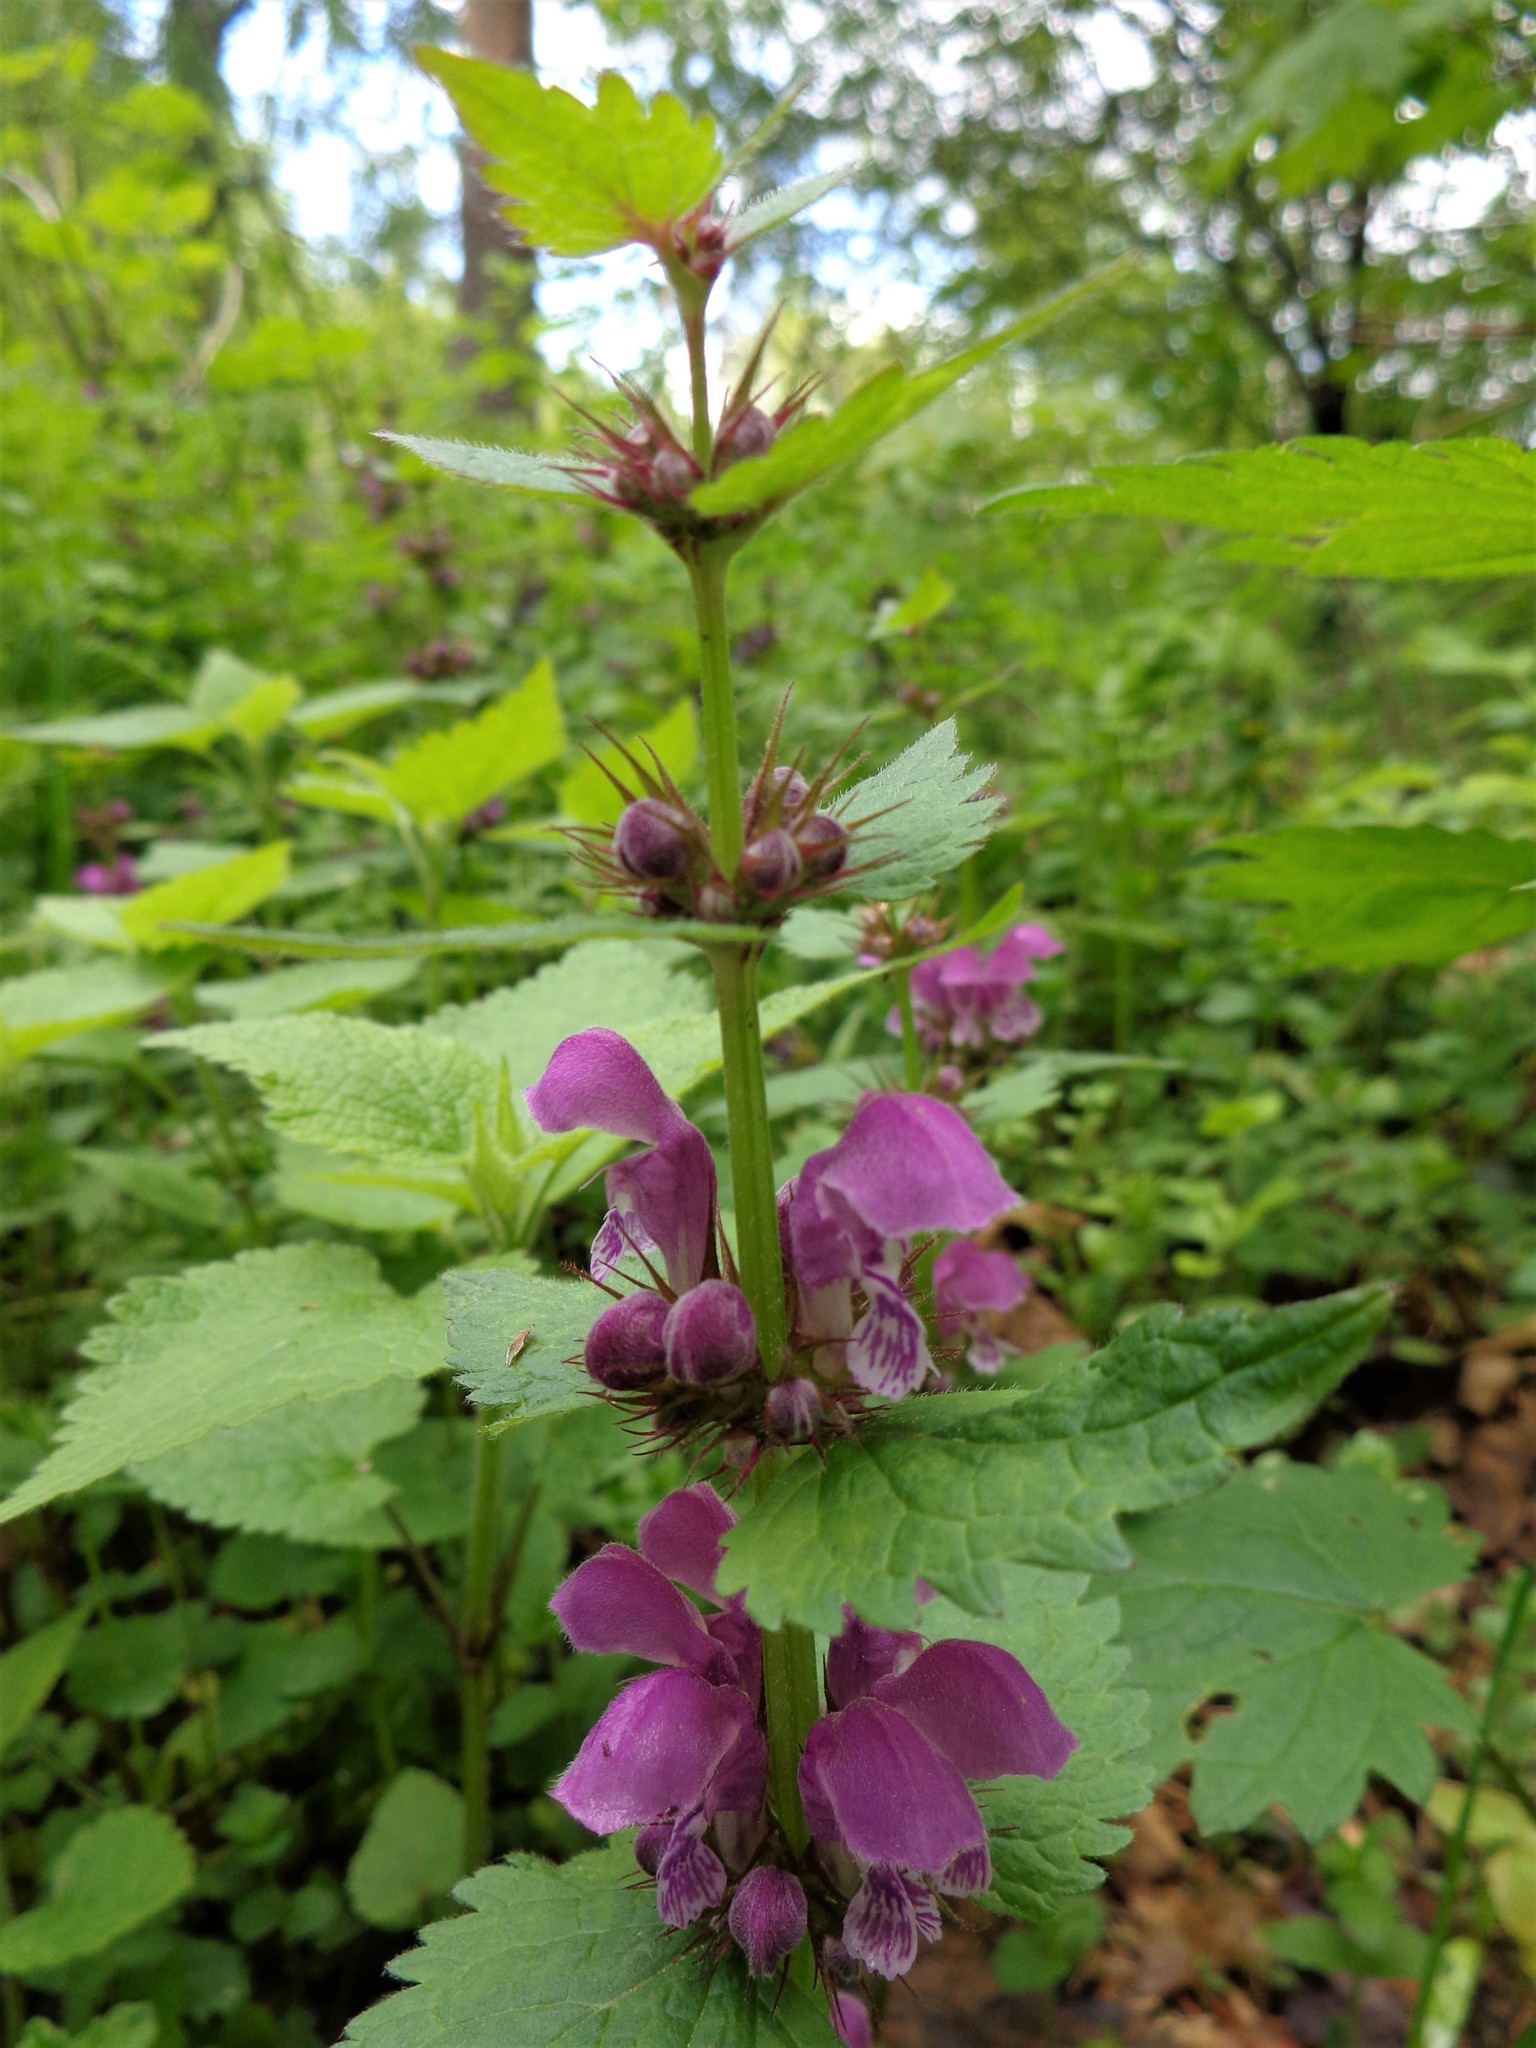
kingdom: Plantae
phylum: Tracheophyta
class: Magnoliopsida
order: Lamiales
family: Lamiaceae
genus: Lamium
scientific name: Lamium maculatum
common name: Spotted dead-nettle
